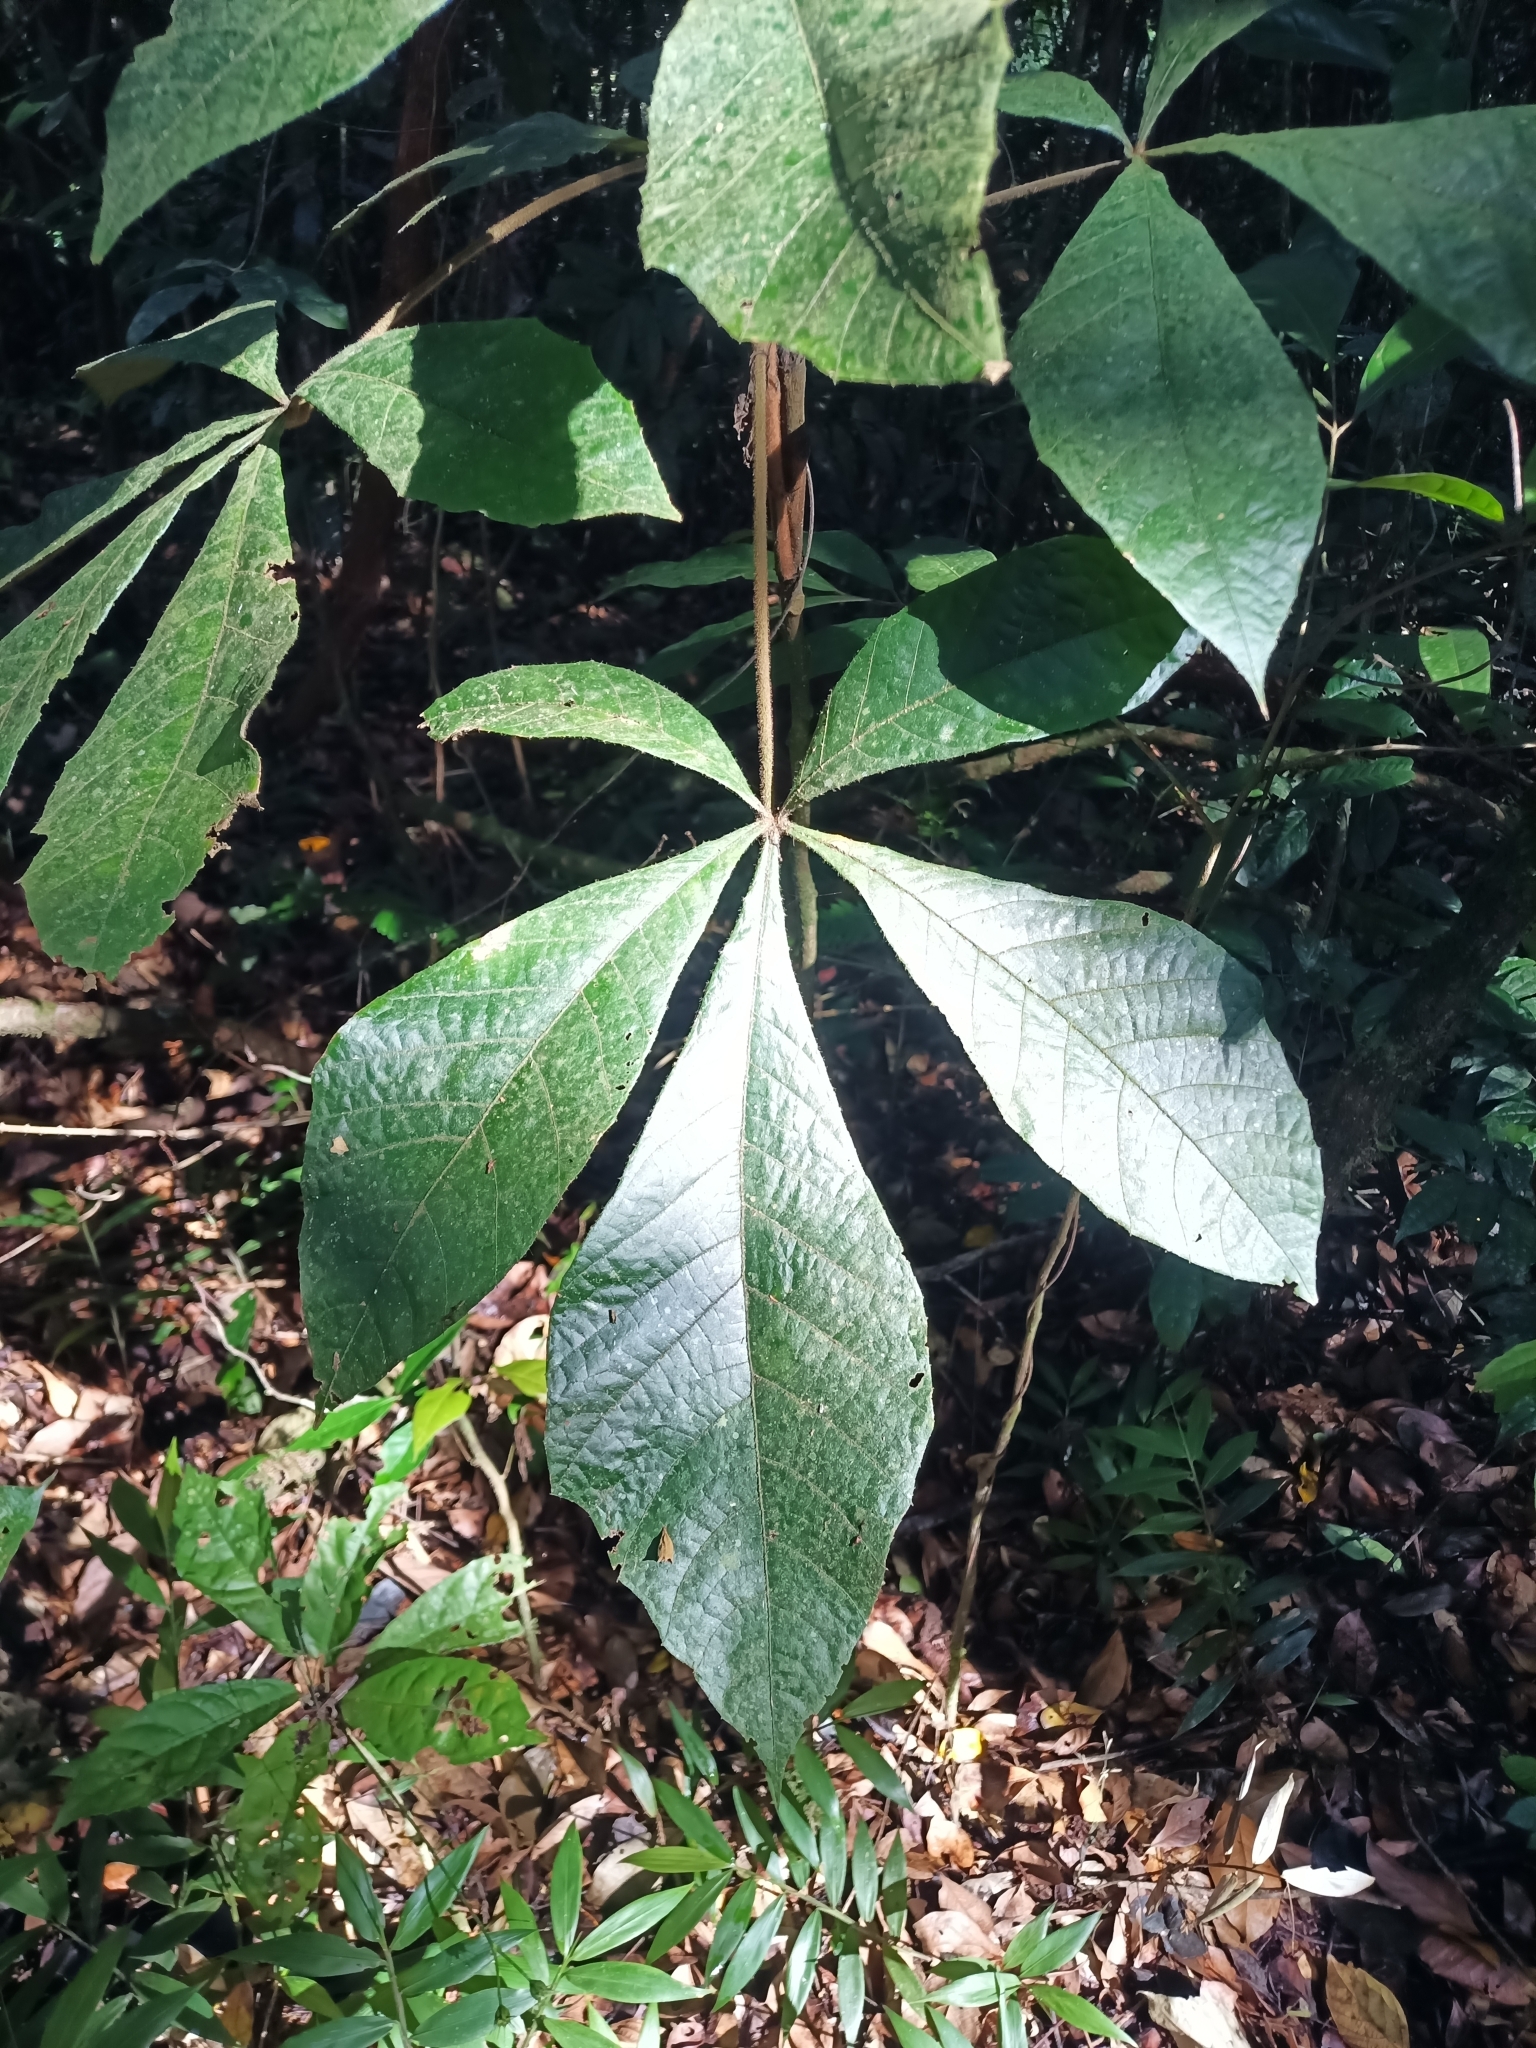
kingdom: Plantae
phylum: Tracheophyta
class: Magnoliopsida
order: Malvales
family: Malvaceae
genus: Herrania
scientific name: Herrania kanukuensis
